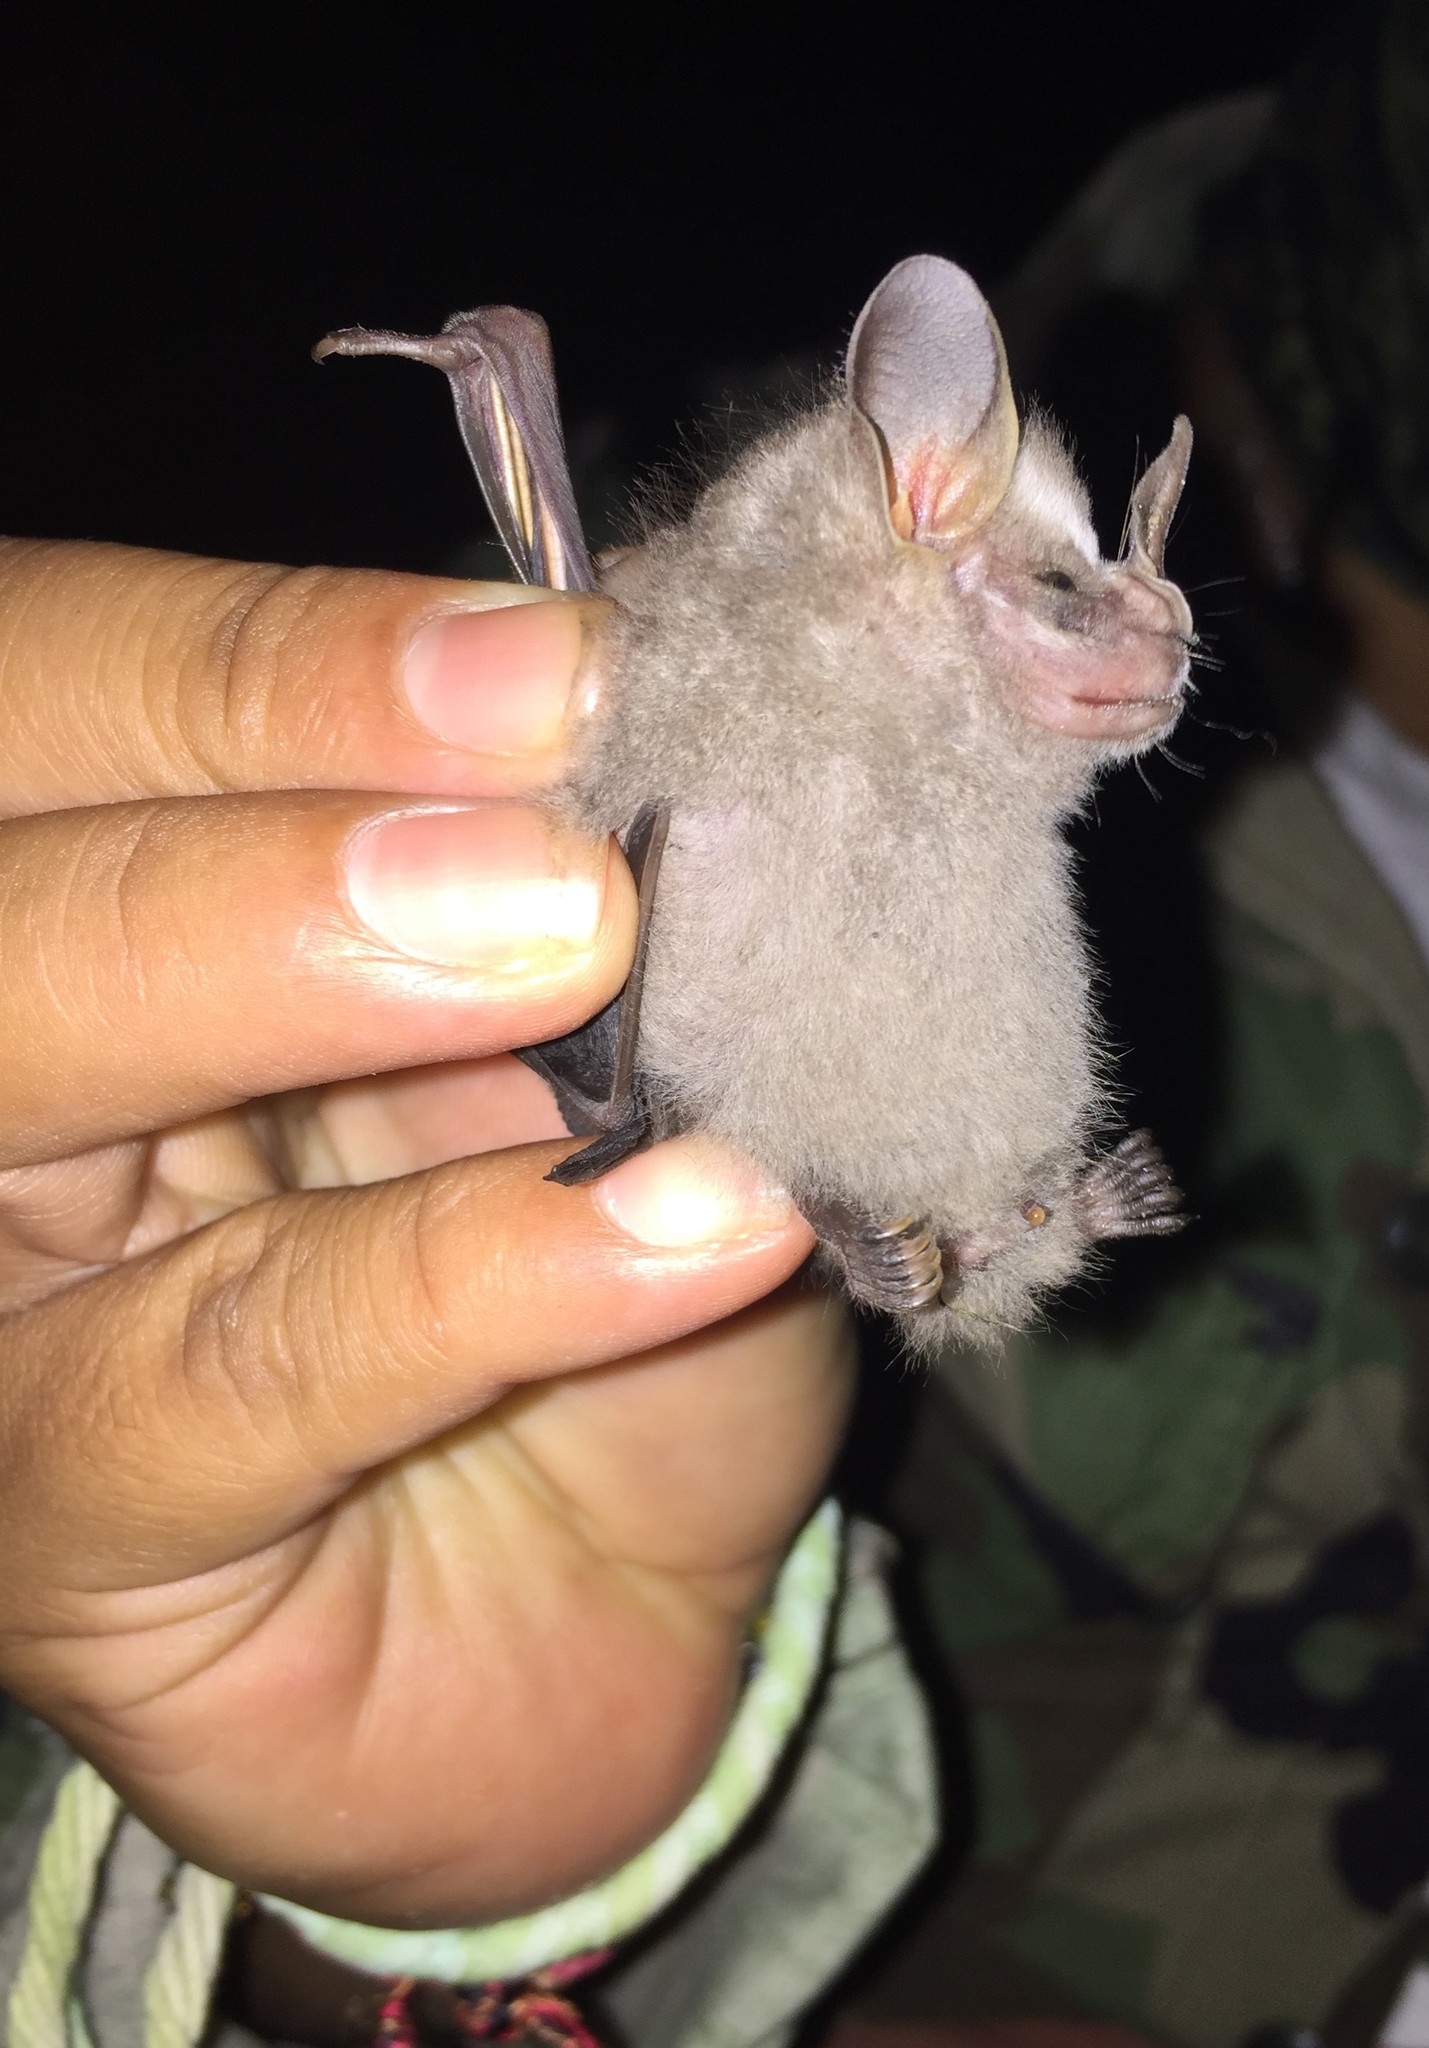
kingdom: Animalia
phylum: Chordata
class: Mammalia
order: Chiroptera
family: Phyllostomidae
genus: Artibeus
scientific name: Artibeus phaeotis
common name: Pygmy fruit-eating bat
